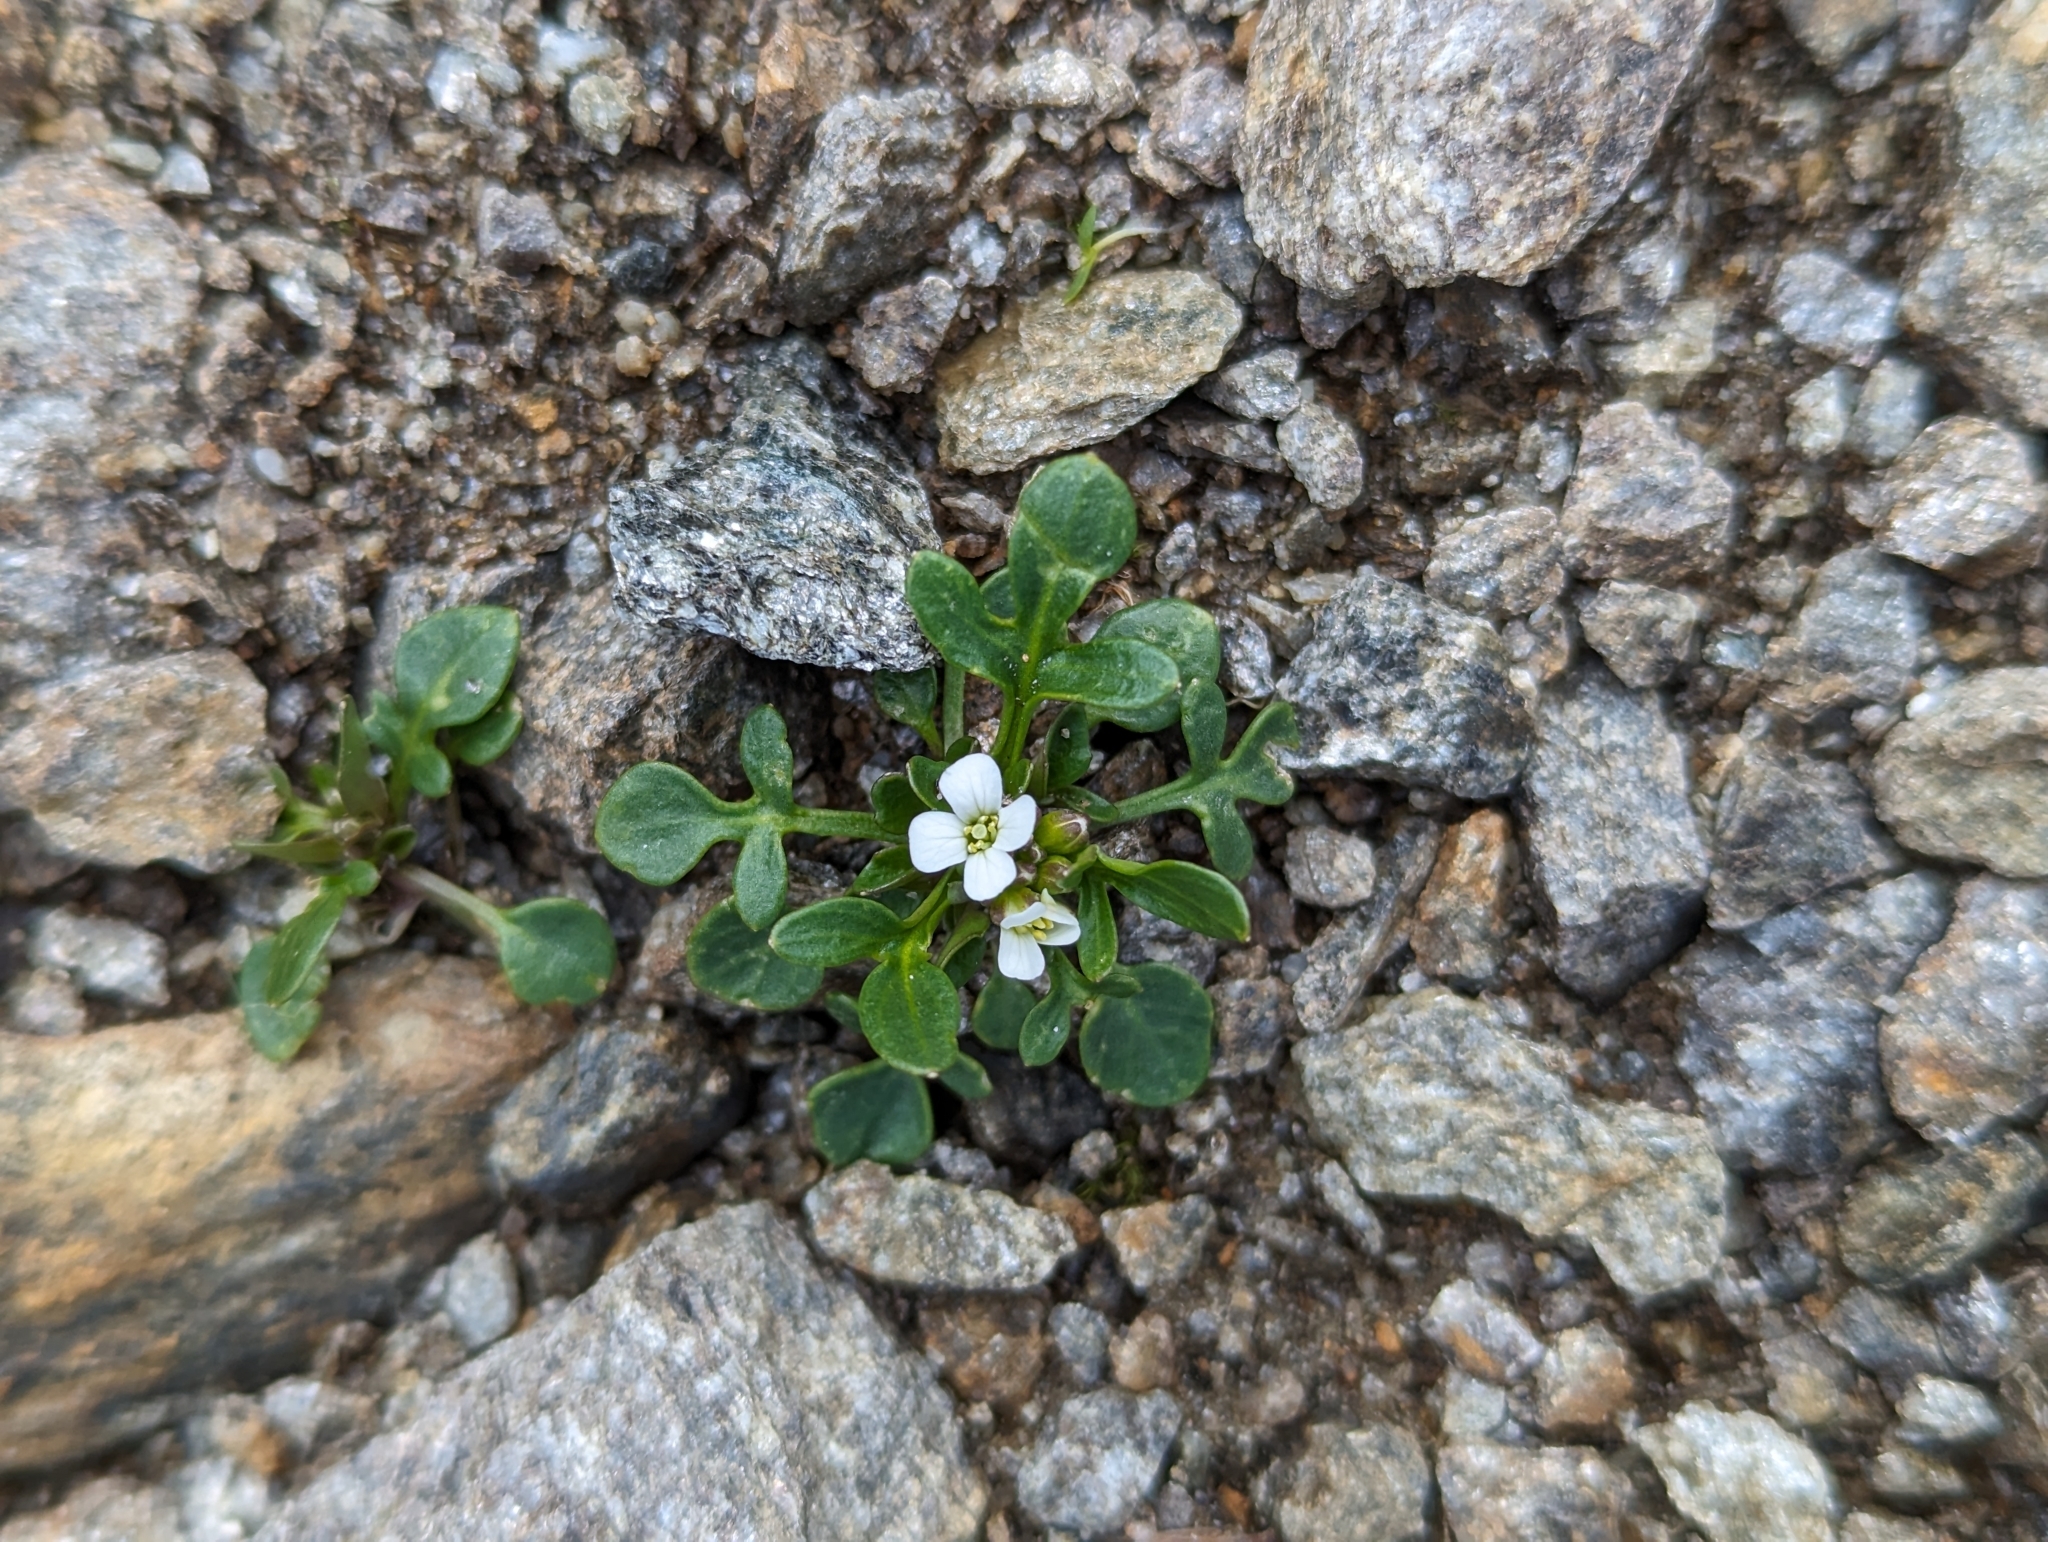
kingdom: Plantae
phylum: Tracheophyta
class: Magnoliopsida
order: Brassicales
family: Brassicaceae
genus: Cardamine
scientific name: Cardamine resedifolia
